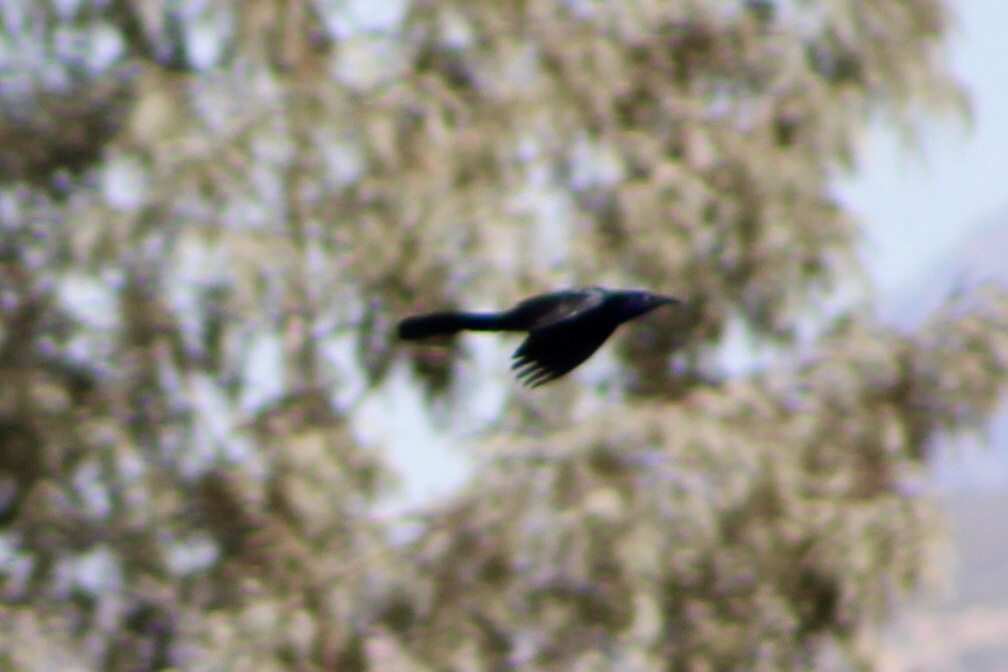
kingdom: Animalia
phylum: Chordata
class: Aves
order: Passeriformes
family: Icteridae
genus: Quiscalus
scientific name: Quiscalus mexicanus
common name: Great-tailed grackle
